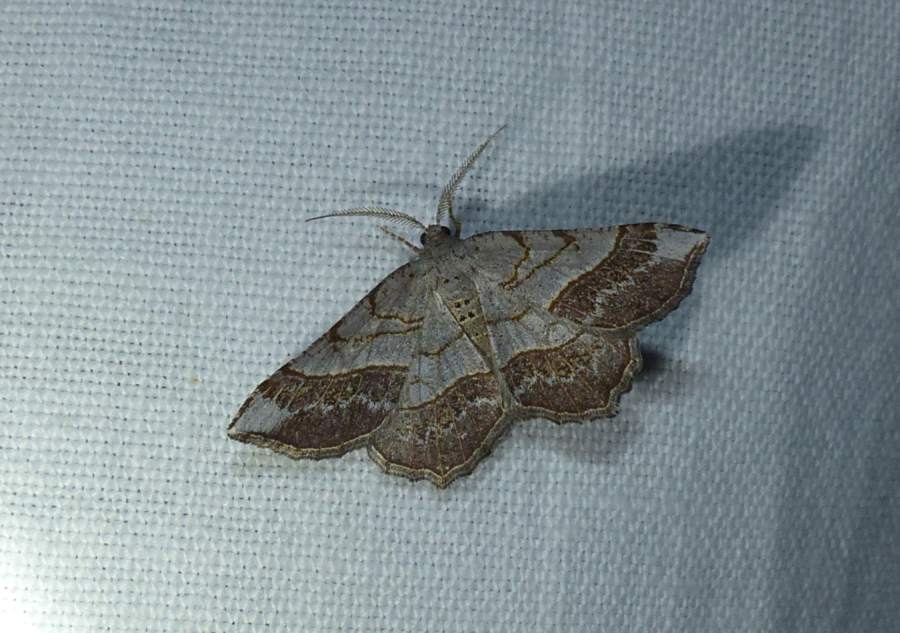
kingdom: Animalia
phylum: Arthropoda
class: Insecta
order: Lepidoptera
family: Geometridae
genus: Eumacaria
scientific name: Eumacaria madopata
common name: Brown-bordered geometer
